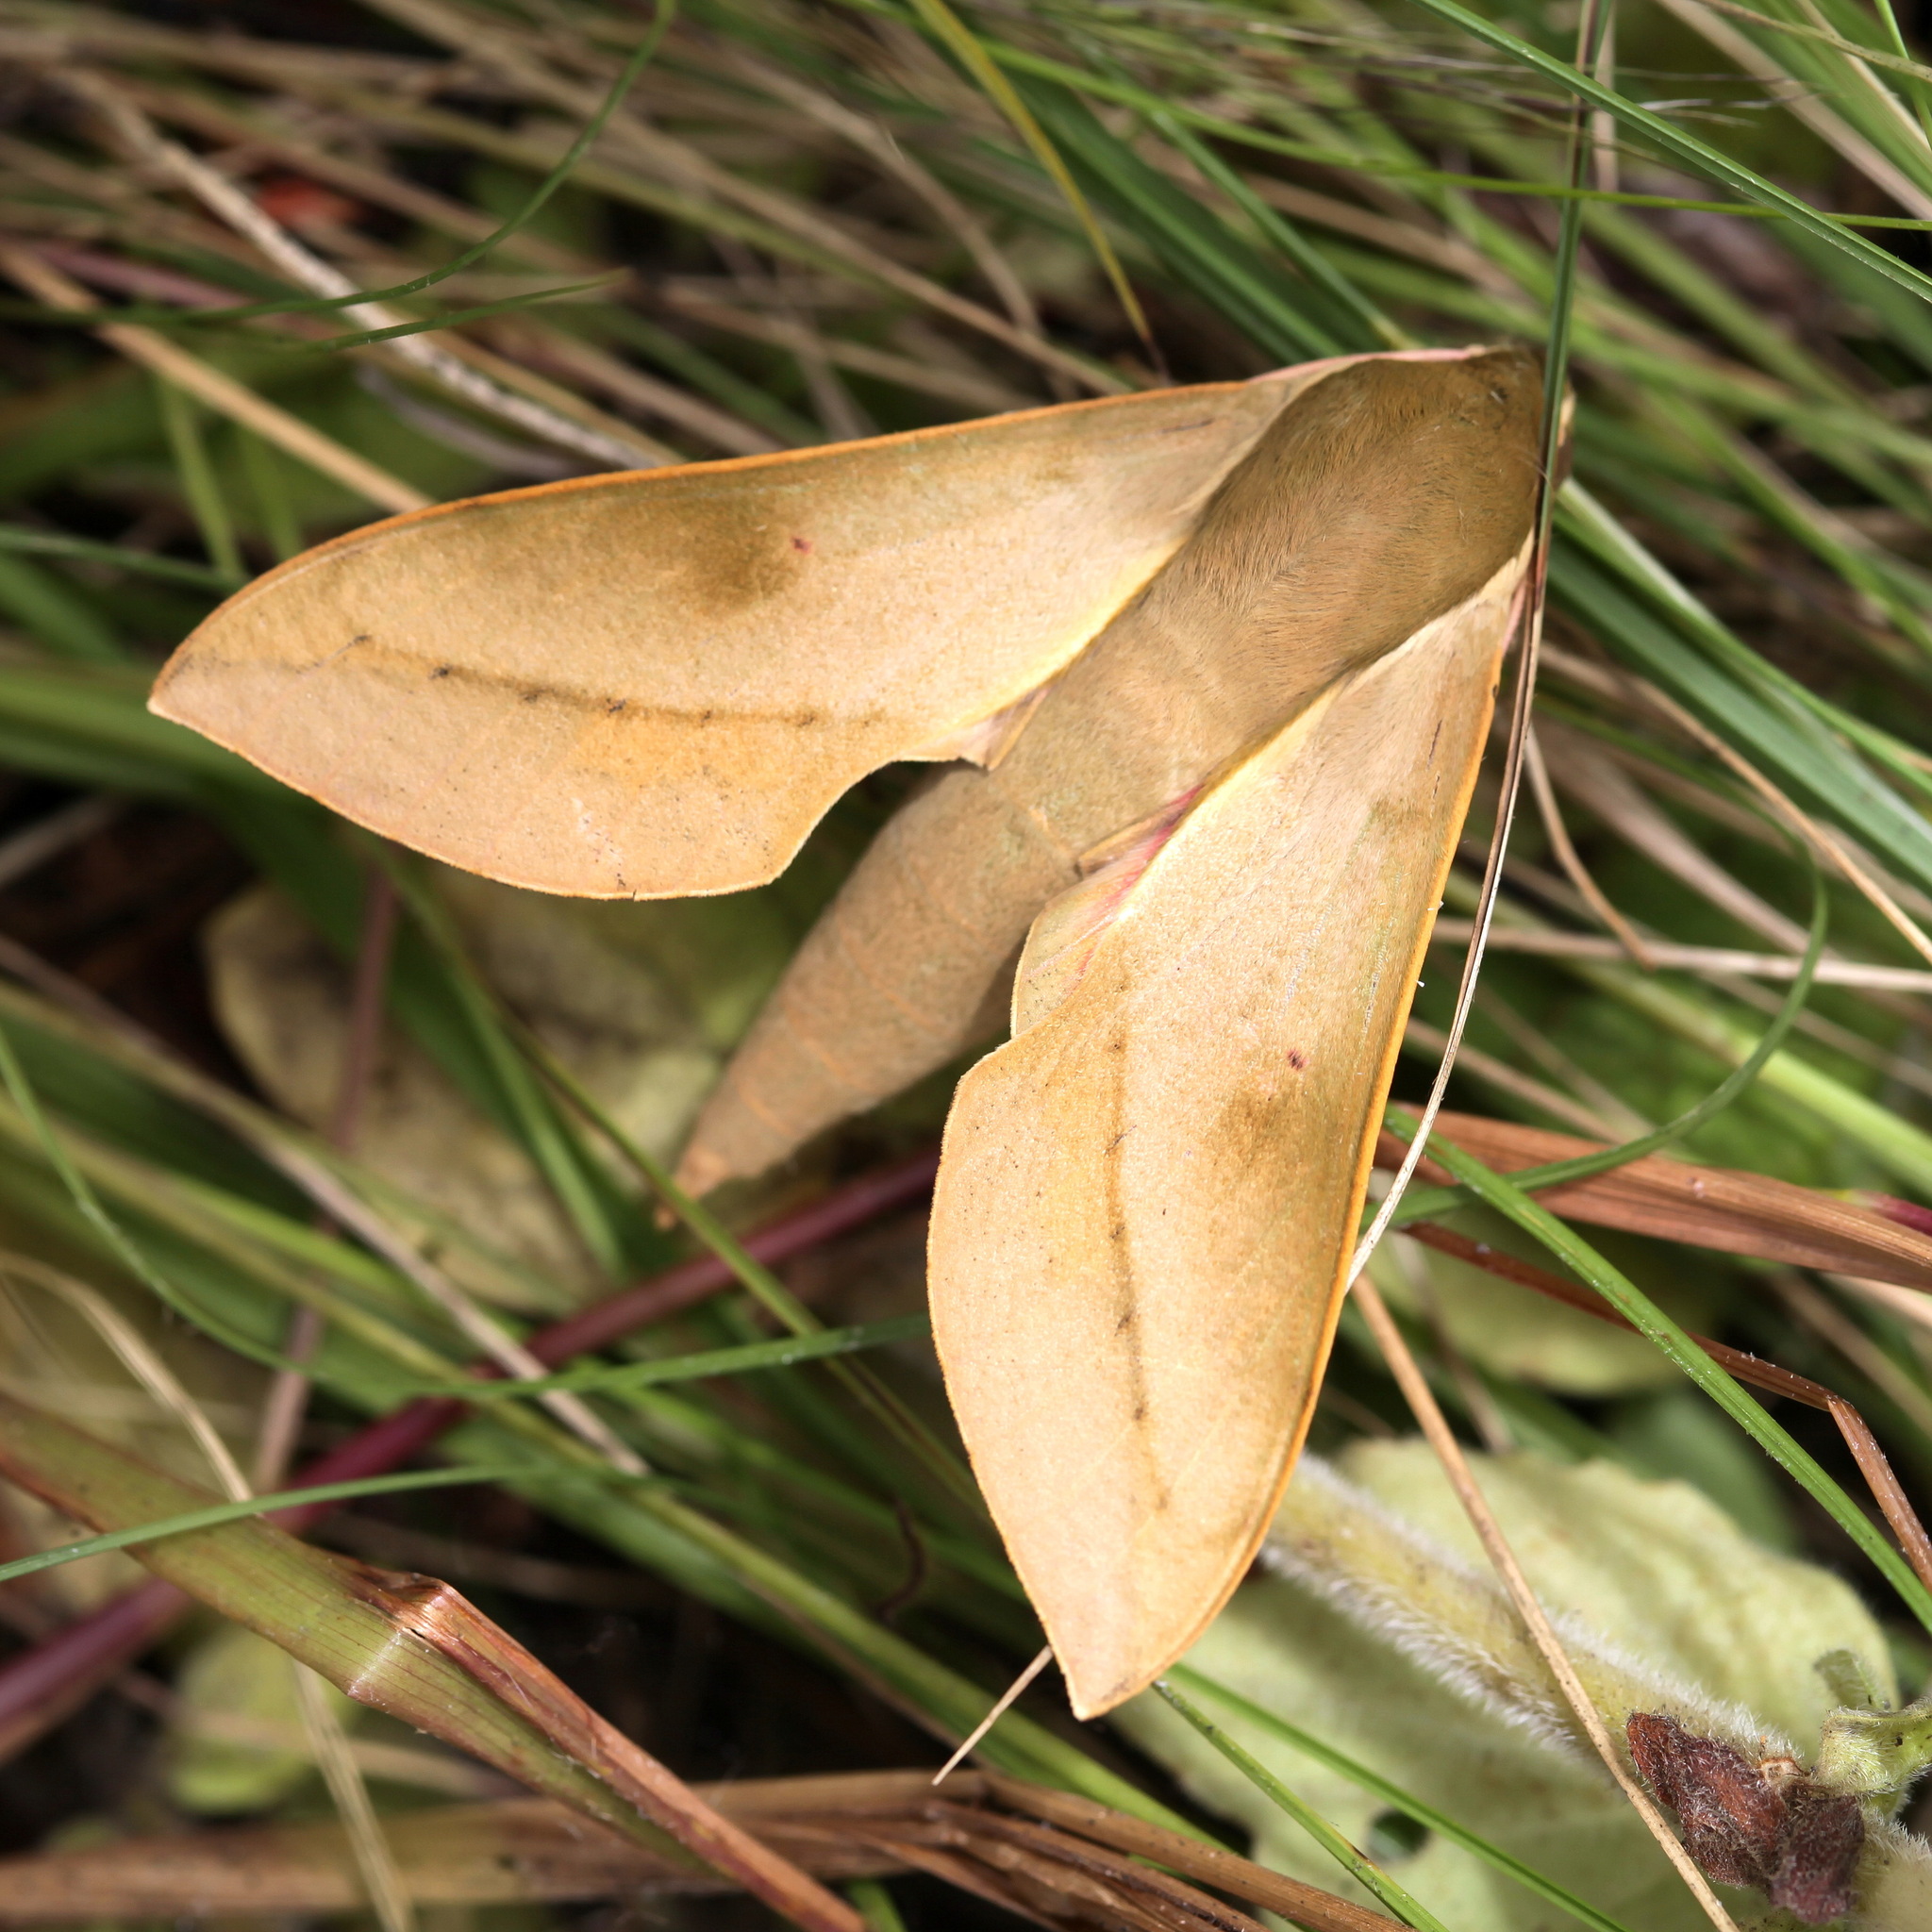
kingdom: Animalia
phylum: Arthropoda
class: Insecta
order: Lepidoptera
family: Sphingidae
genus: Theretra
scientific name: Theretra capensis
